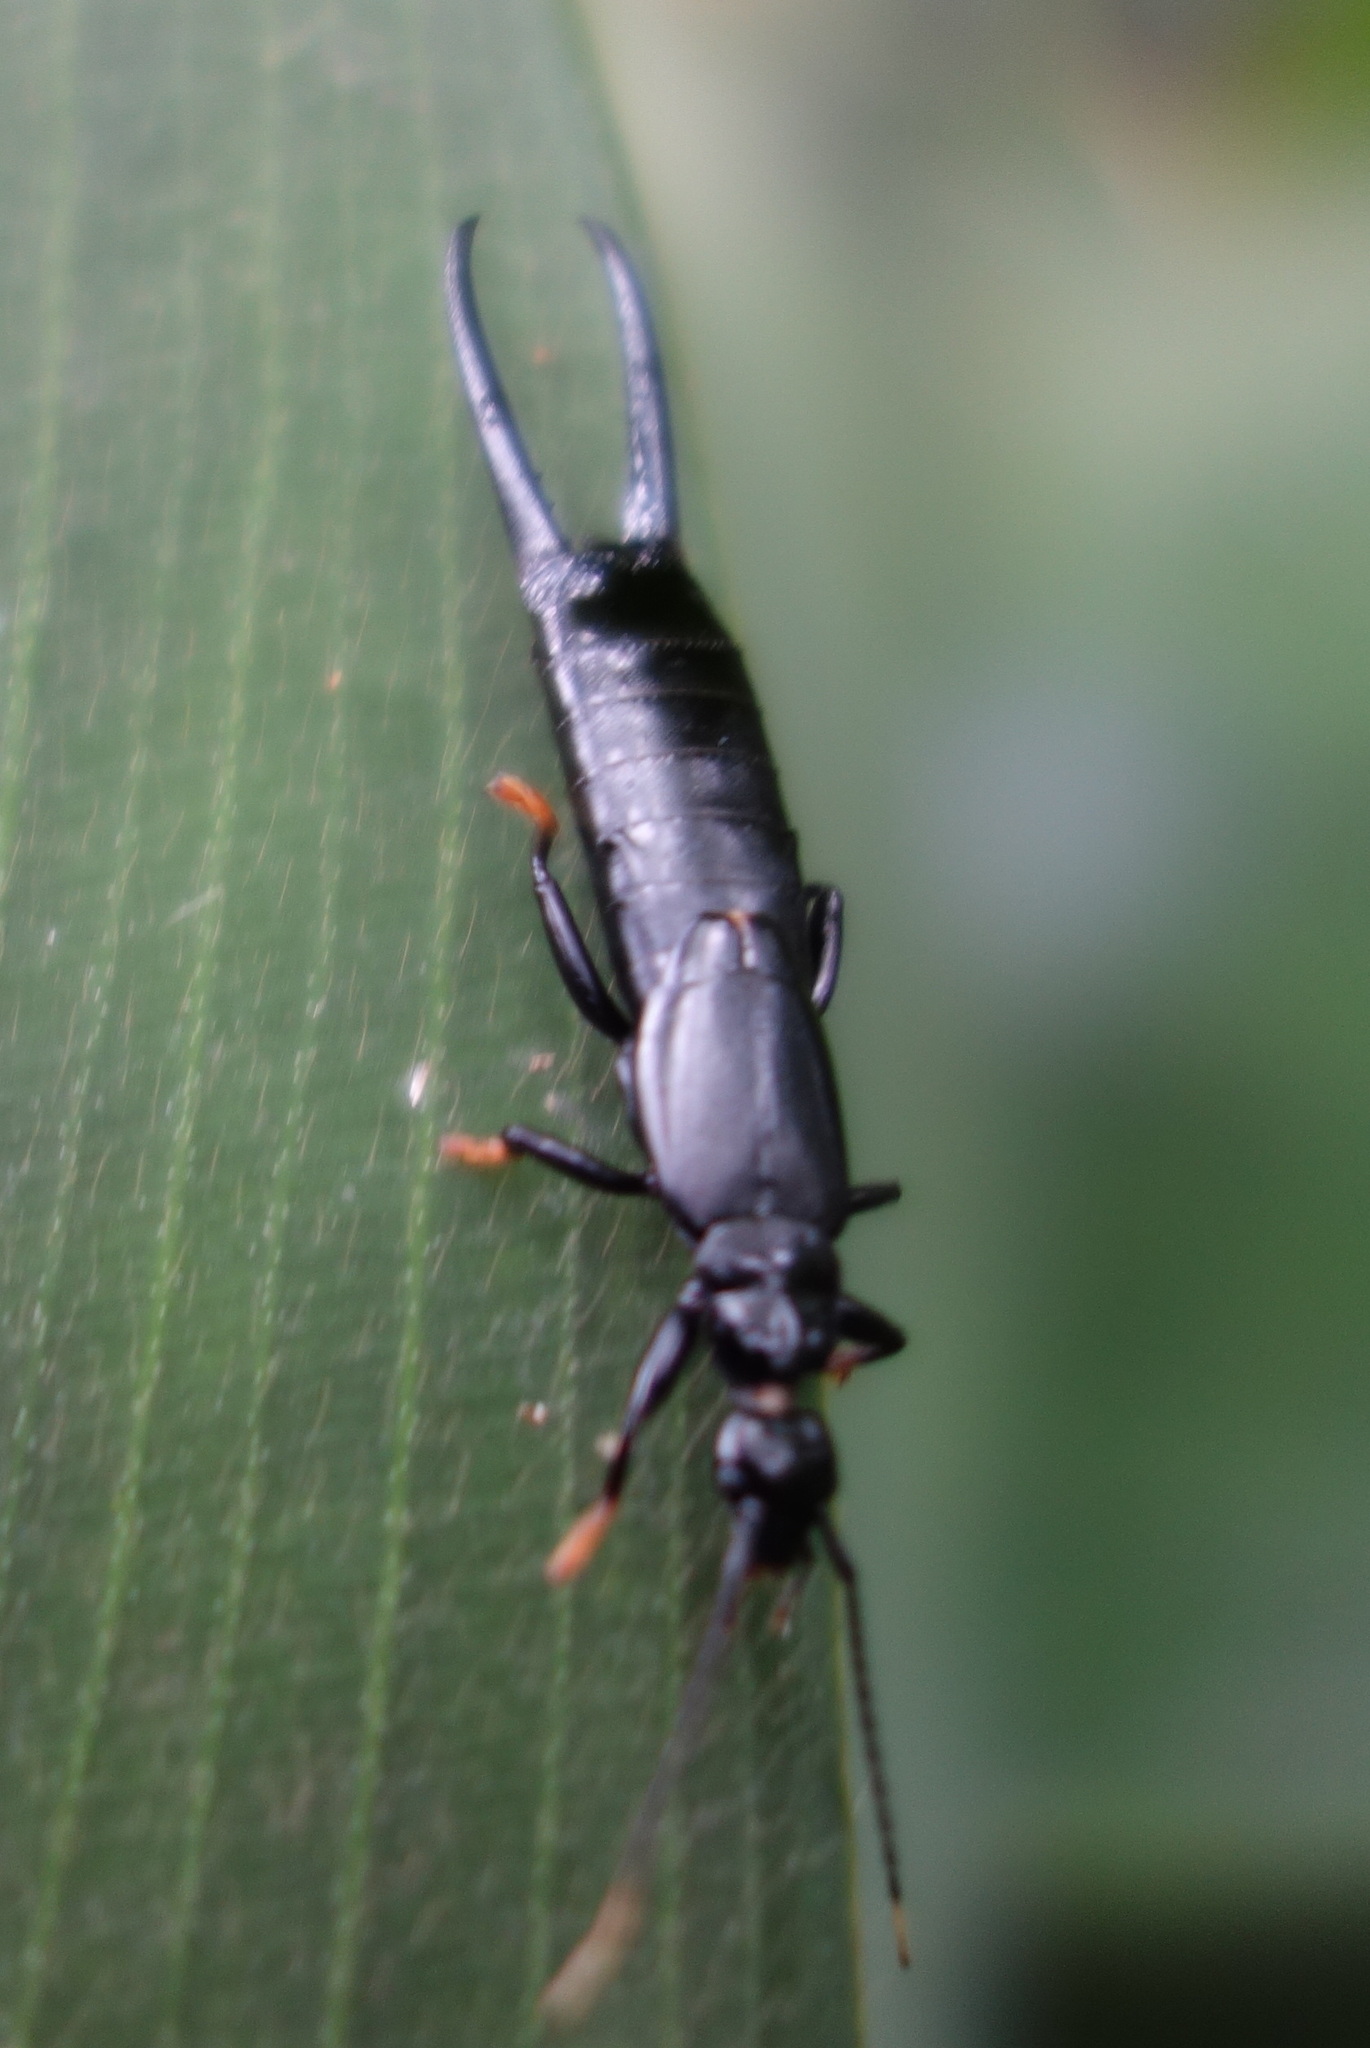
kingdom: Animalia
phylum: Arthropoda
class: Insecta
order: Dermaptera
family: Chelisochidae
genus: Chelisoches
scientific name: Chelisoches morio
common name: Black earwig
